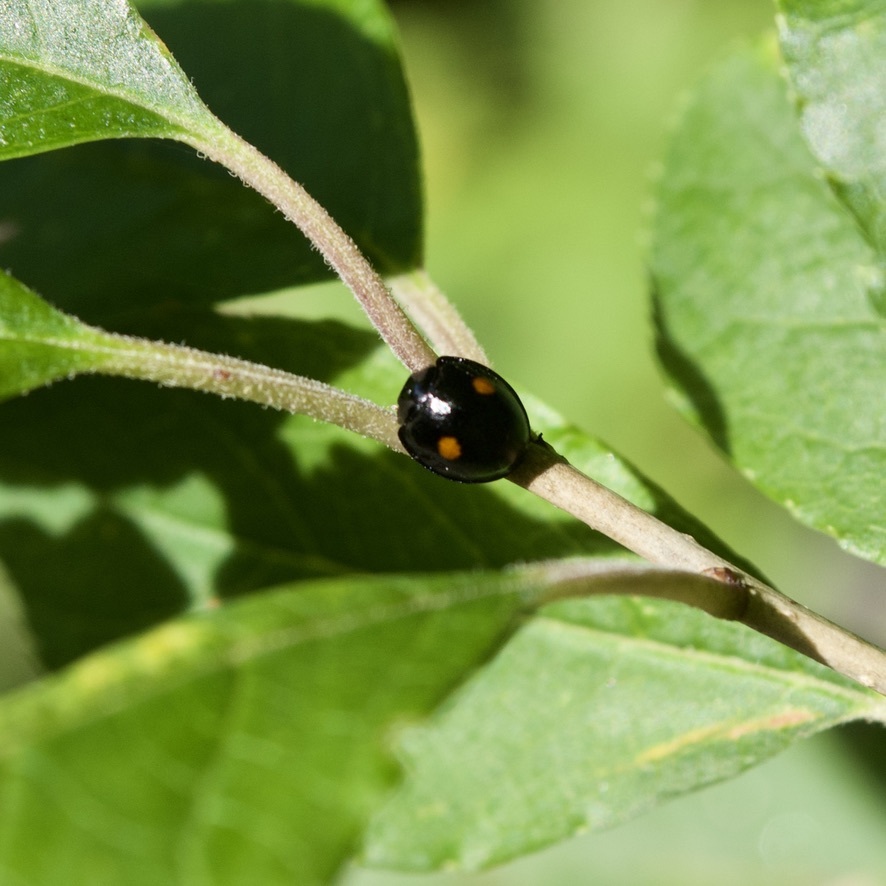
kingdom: Animalia
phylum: Arthropoda
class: Insecta
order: Coleoptera
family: Coccinellidae
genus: Chilocorus
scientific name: Chilocorus stigma
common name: Twicestabbed lady beetle
